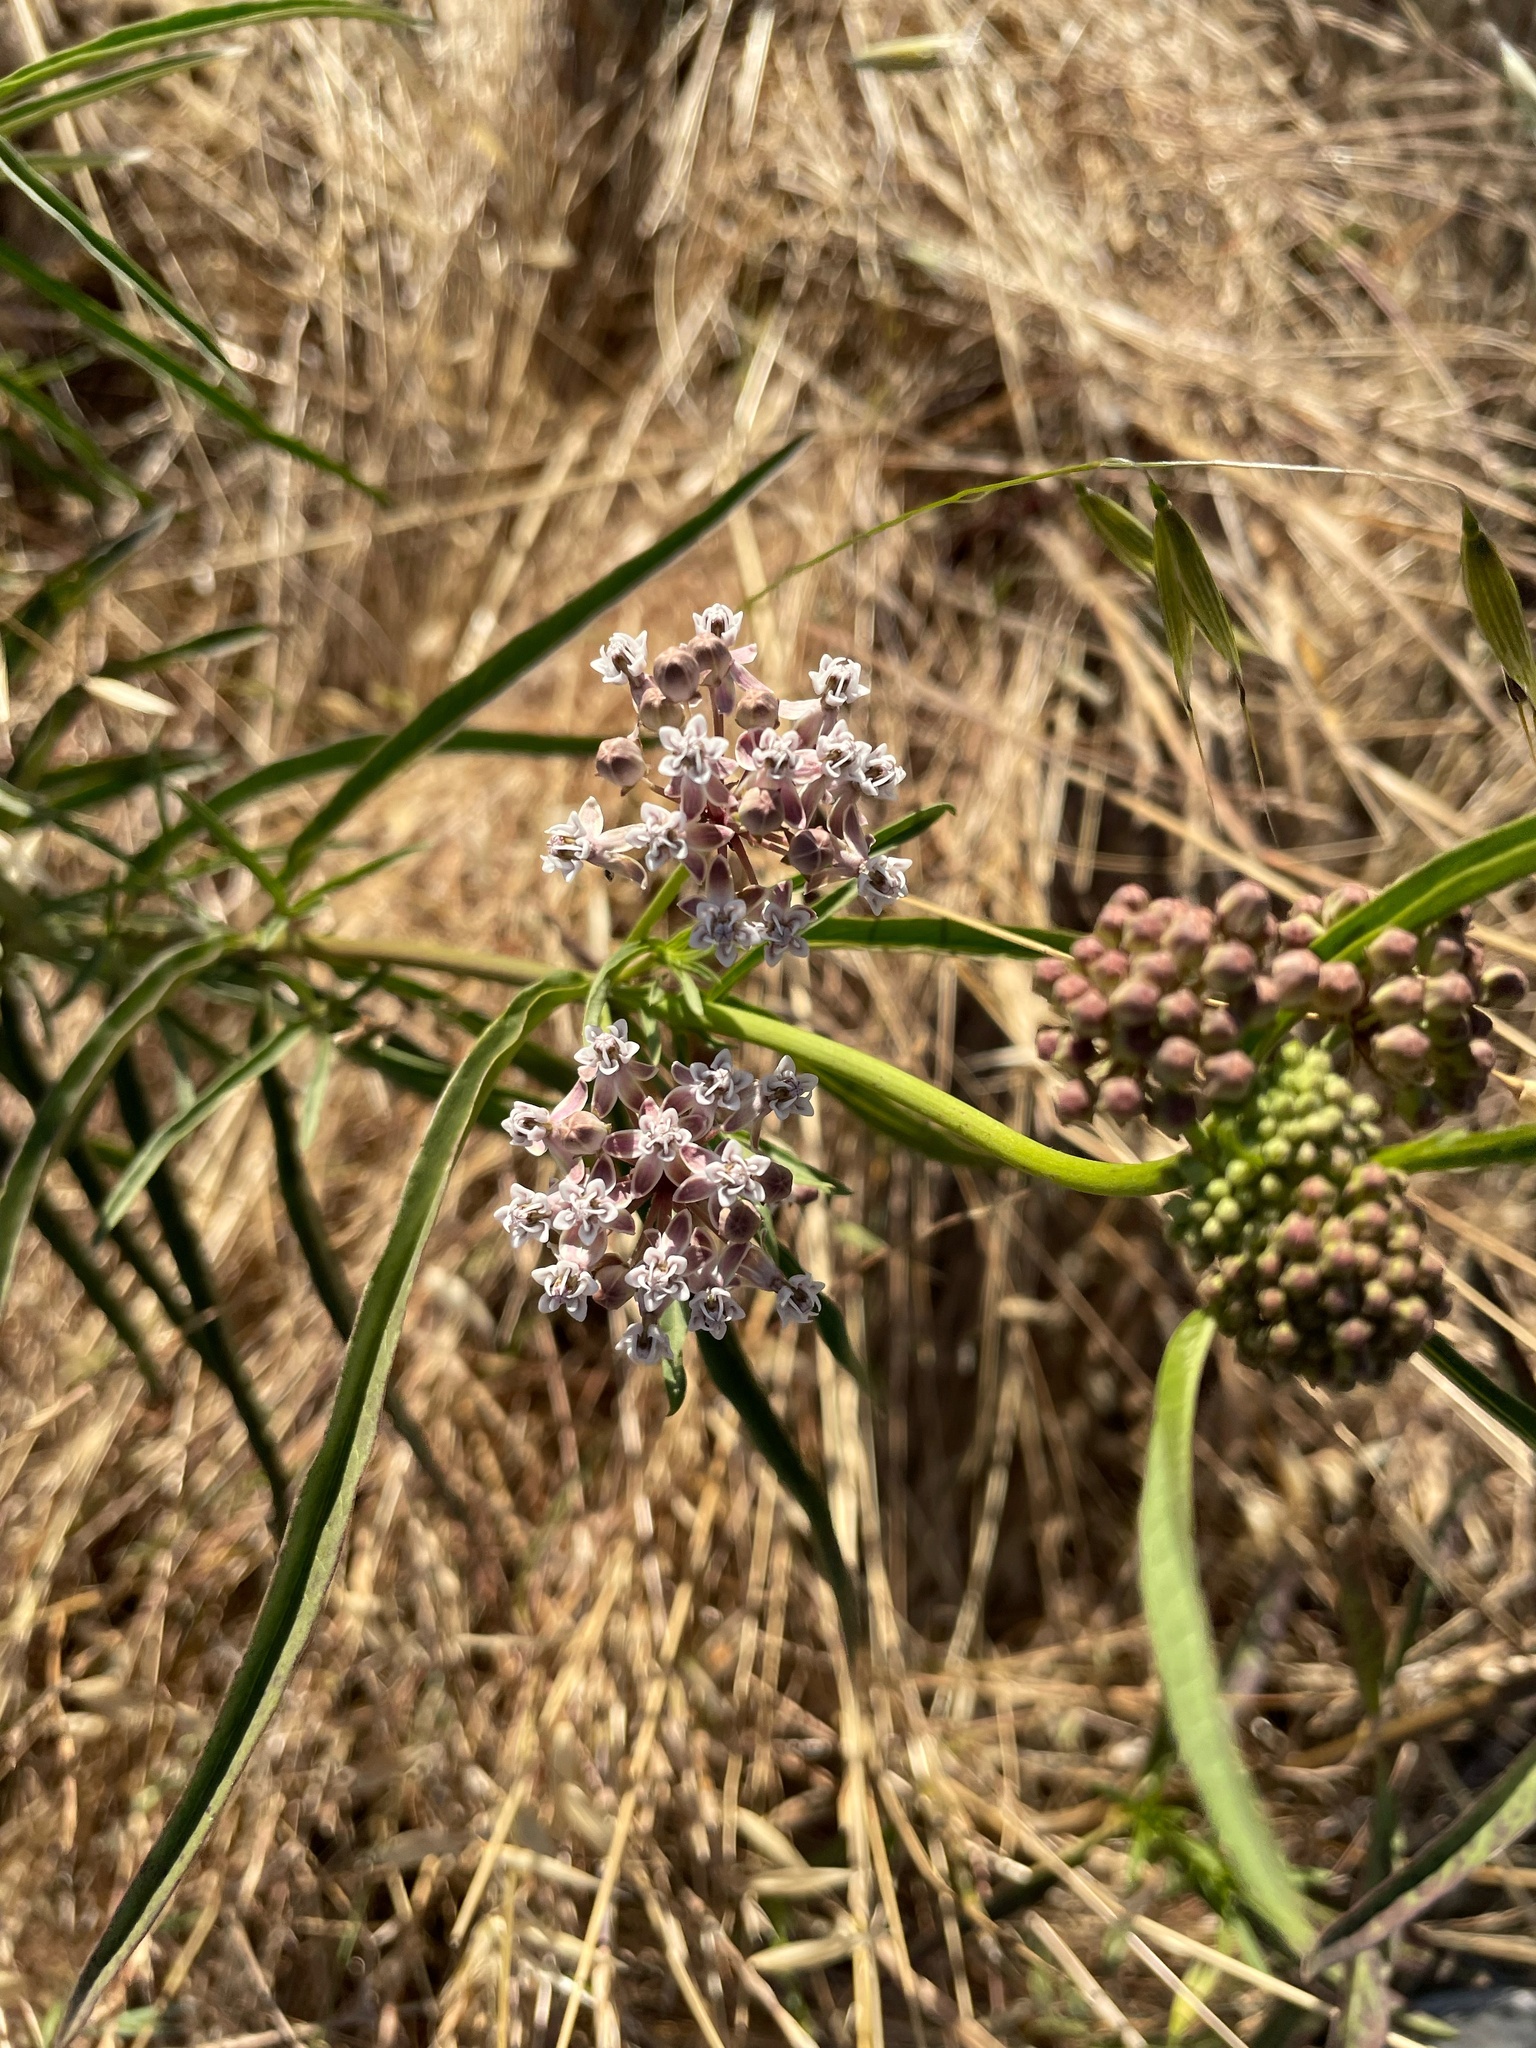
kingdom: Plantae
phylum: Tracheophyta
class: Magnoliopsida
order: Gentianales
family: Apocynaceae
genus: Asclepias
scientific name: Asclepias fascicularis
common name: Mexican milkweed
